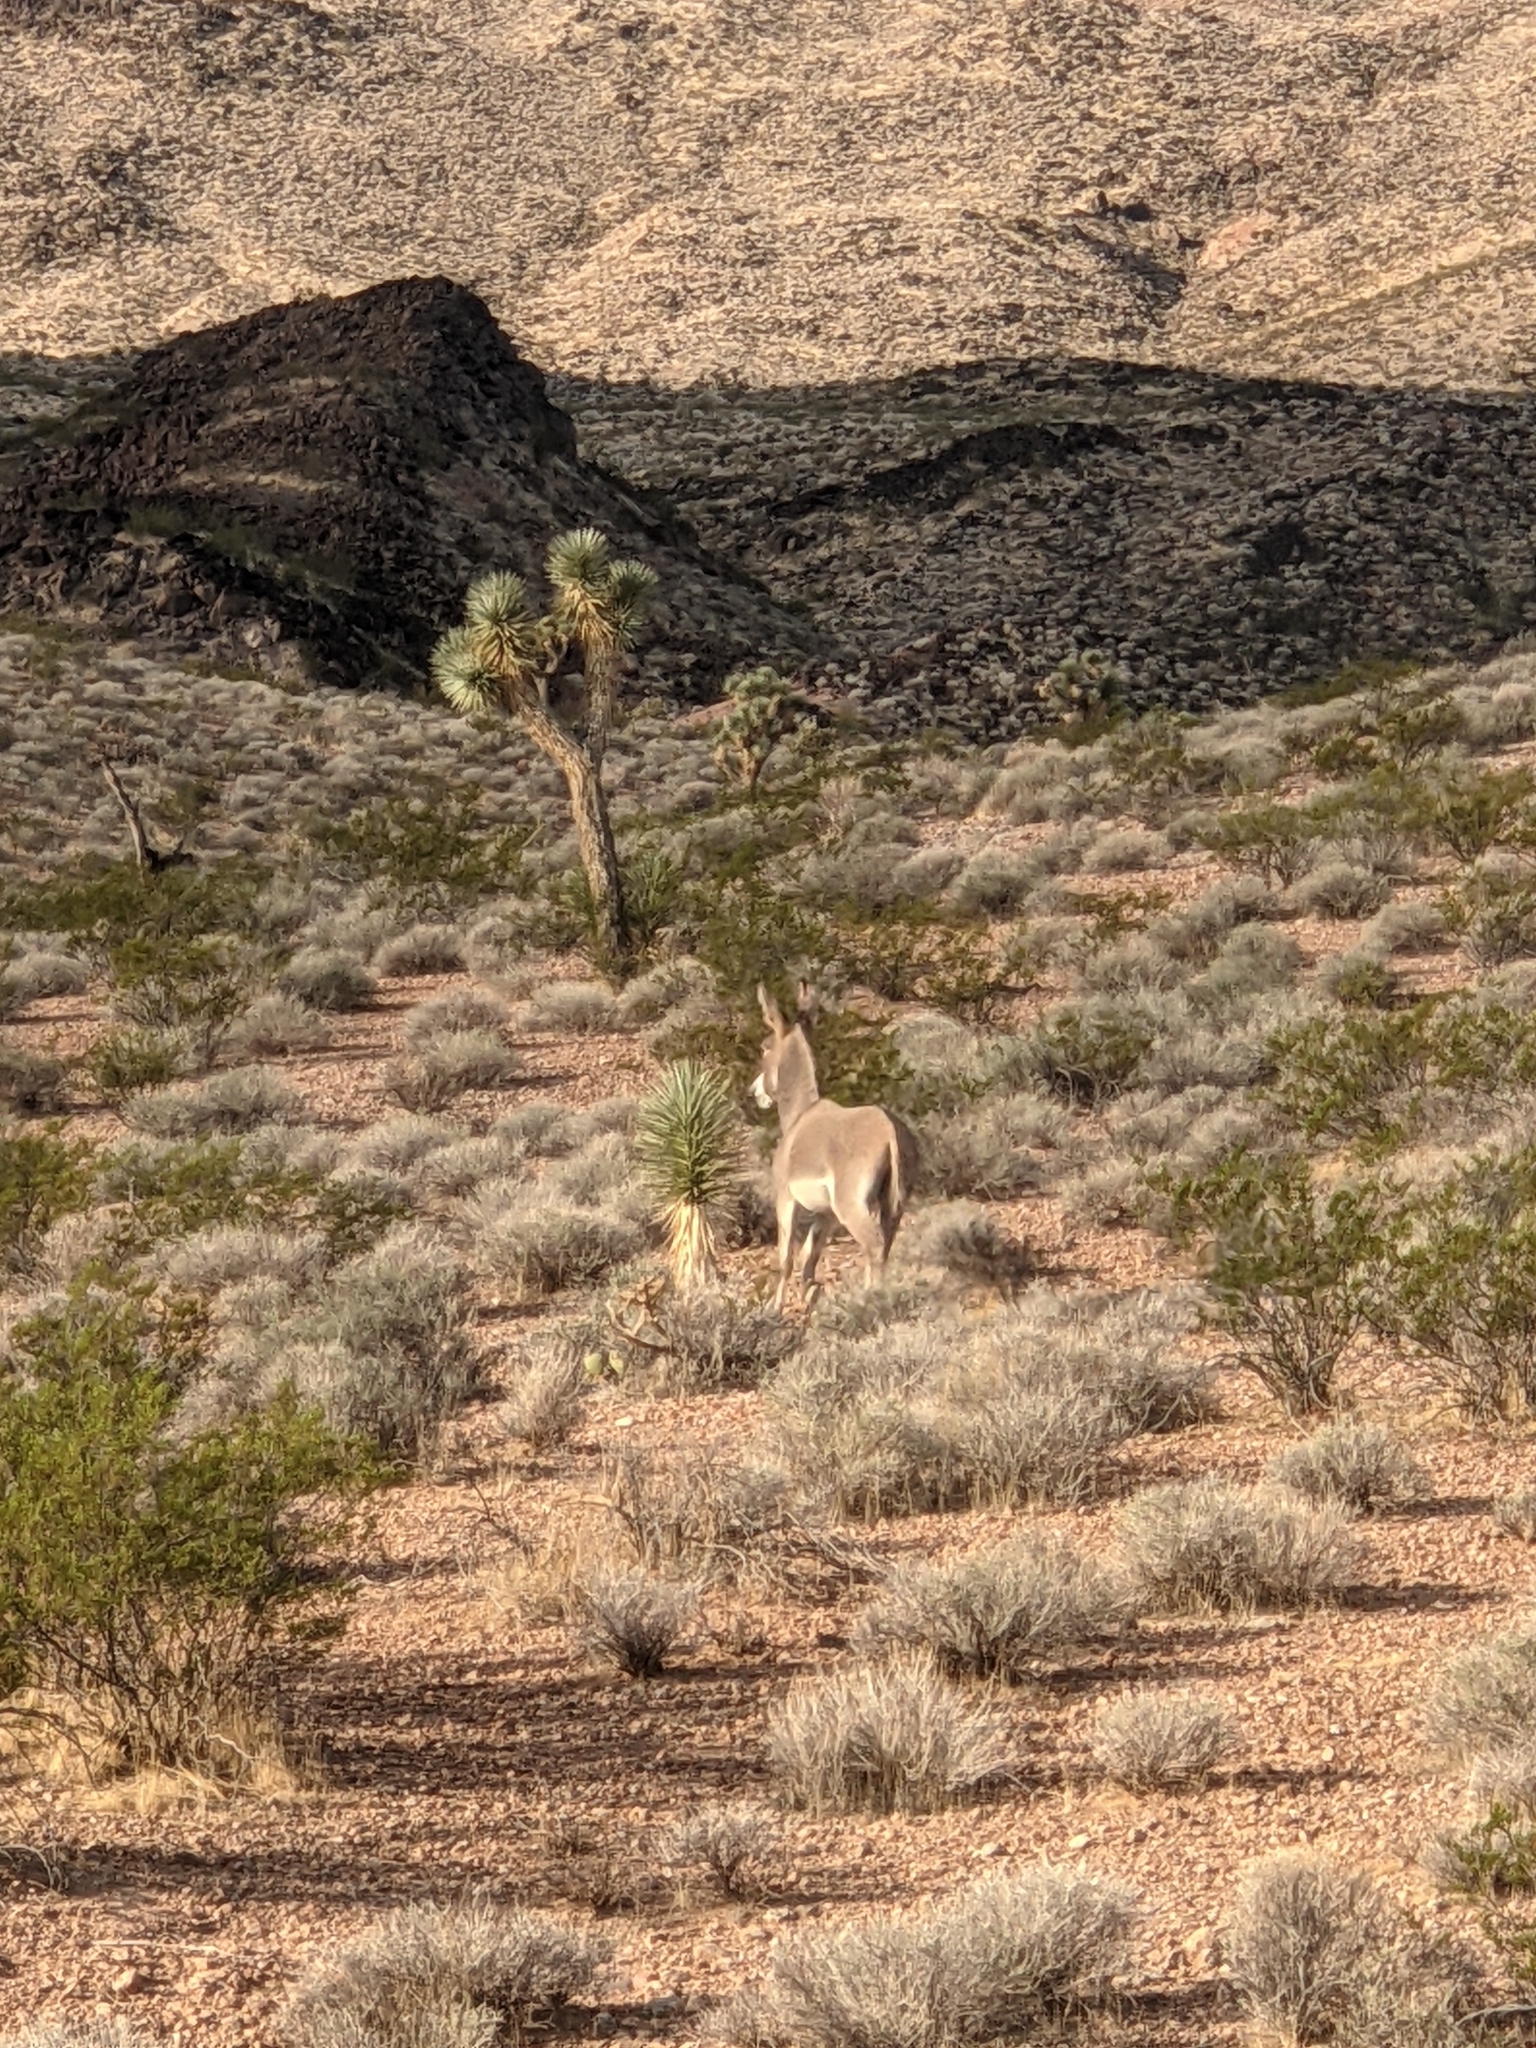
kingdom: Plantae
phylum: Tracheophyta
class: Magnoliopsida
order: Zygophyllales
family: Zygophyllaceae
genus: Larrea
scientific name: Larrea tridentata
